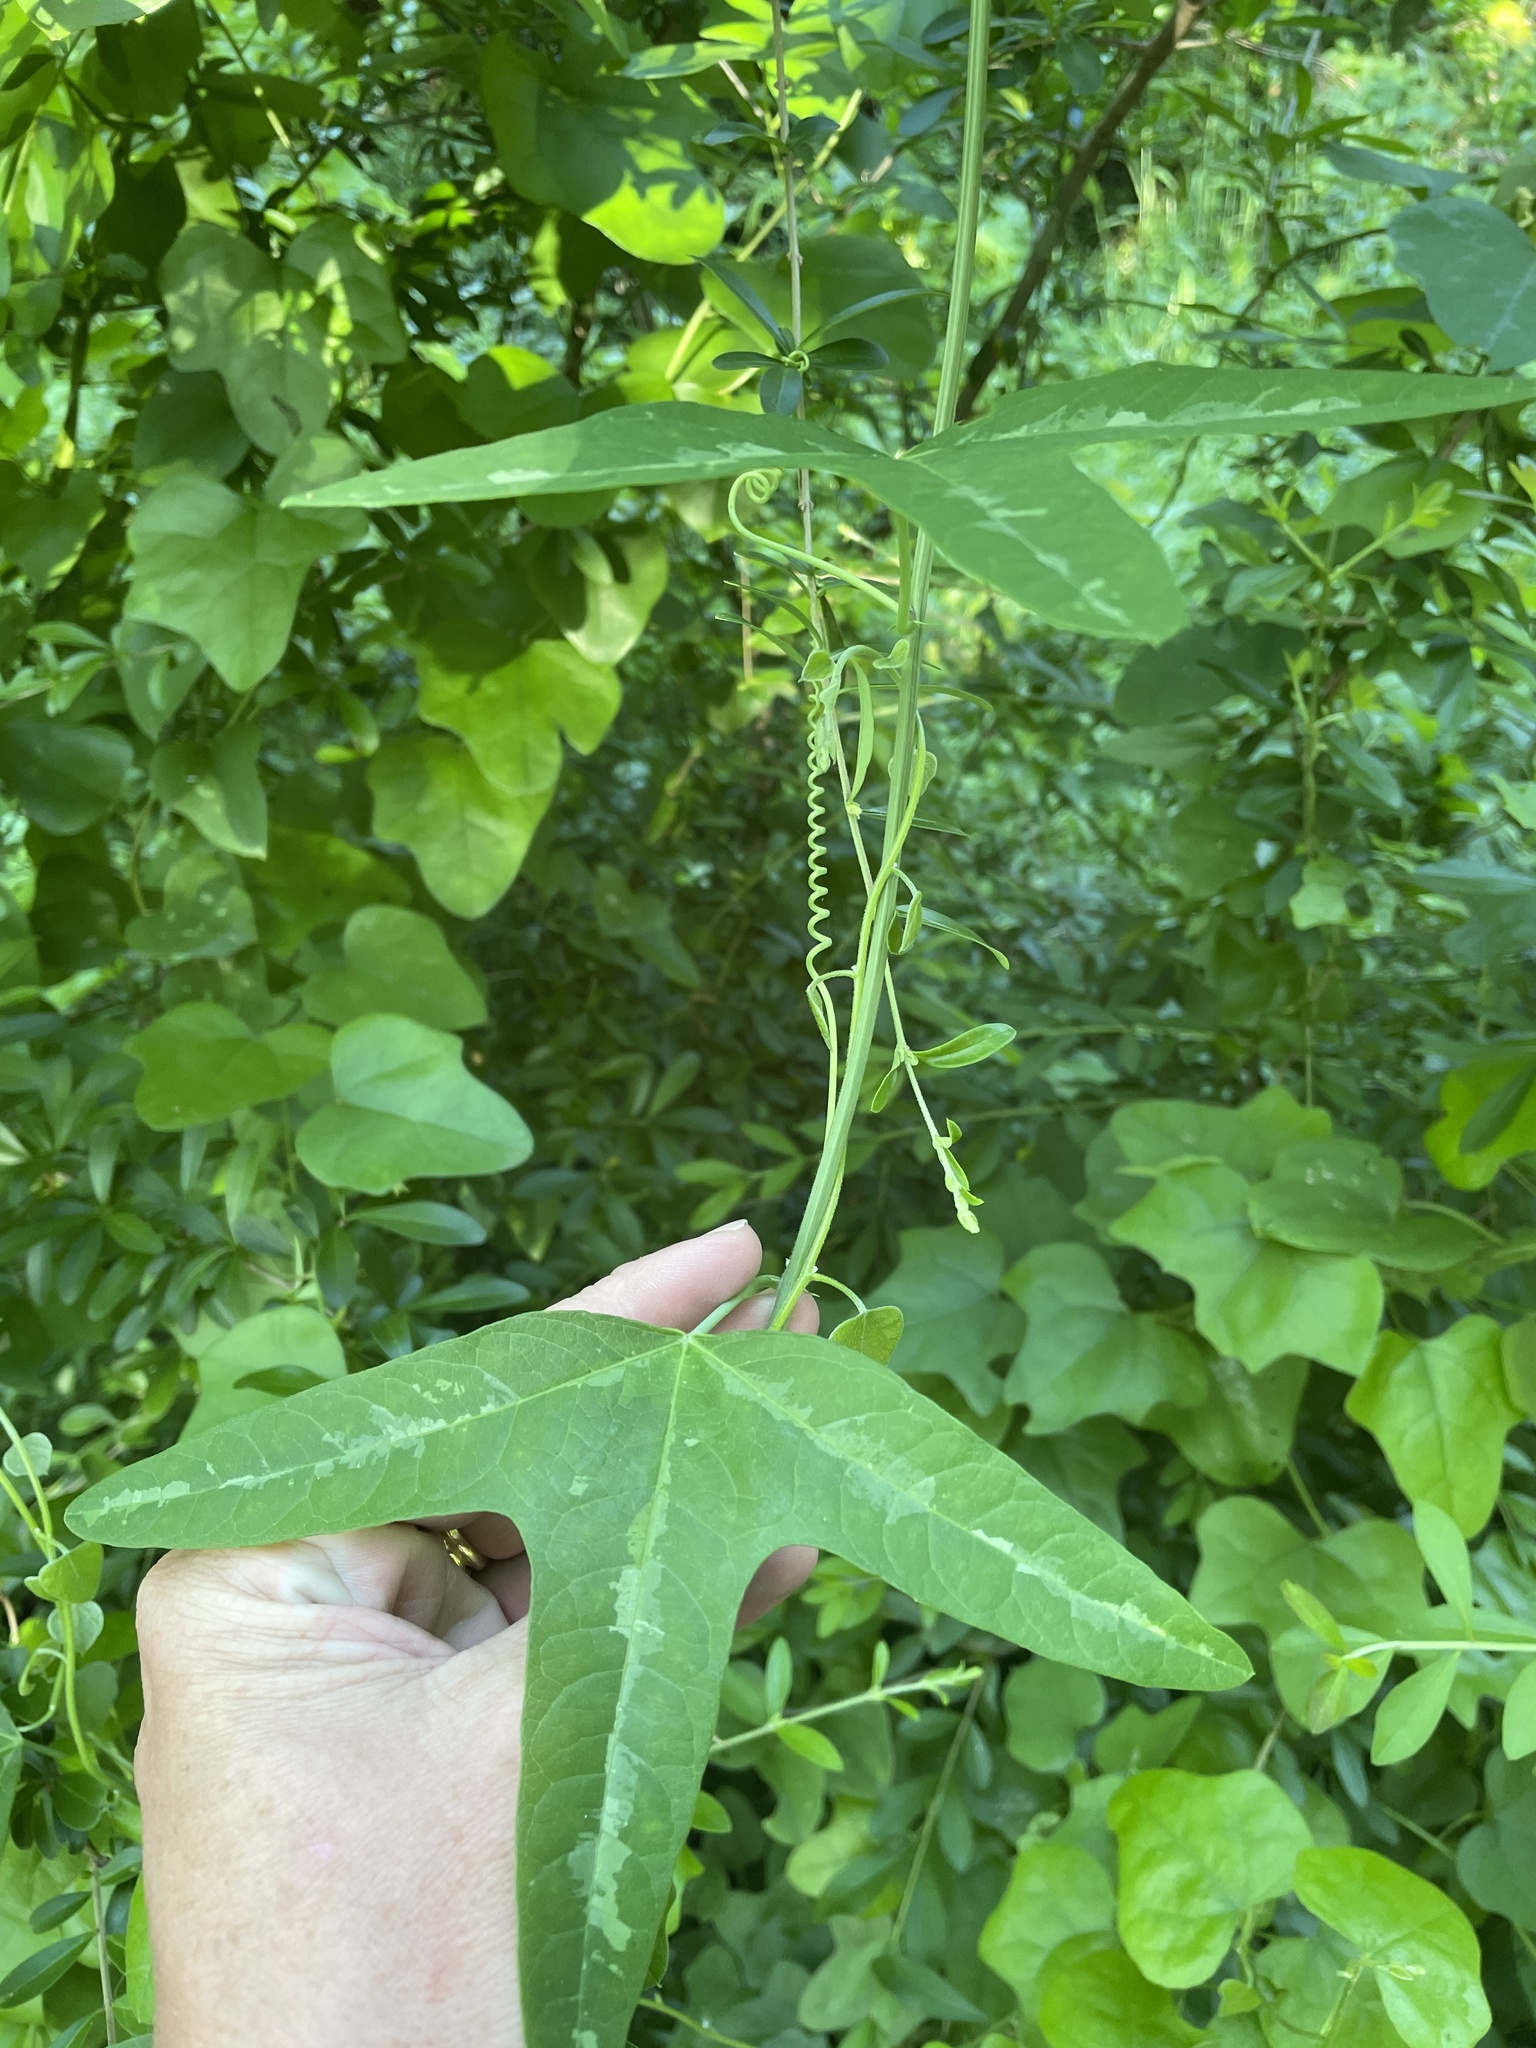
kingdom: Plantae
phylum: Tracheophyta
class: Magnoliopsida
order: Malpighiales
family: Passifloraceae
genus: Passiflora
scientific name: Passiflora lutea
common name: Yellow passionflower
